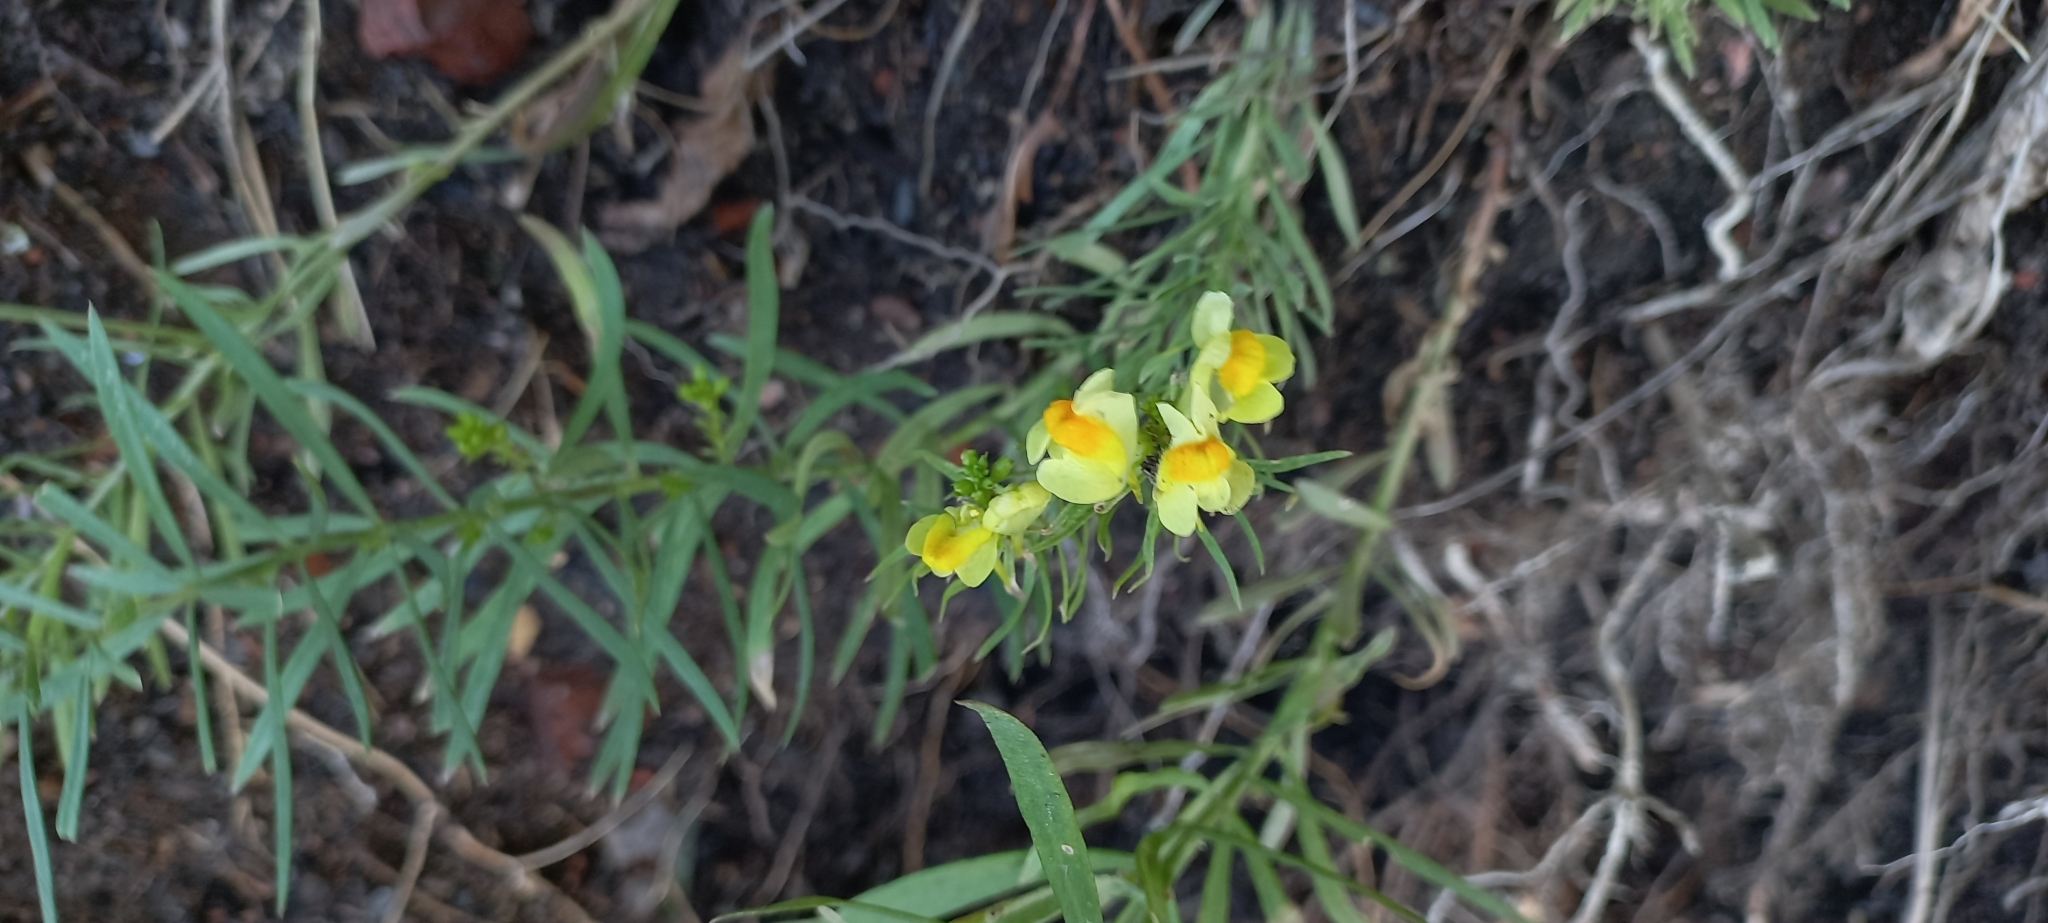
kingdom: Plantae
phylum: Tracheophyta
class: Magnoliopsida
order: Lamiales
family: Plantaginaceae
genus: Linaria
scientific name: Linaria vulgaris
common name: Butter and eggs
